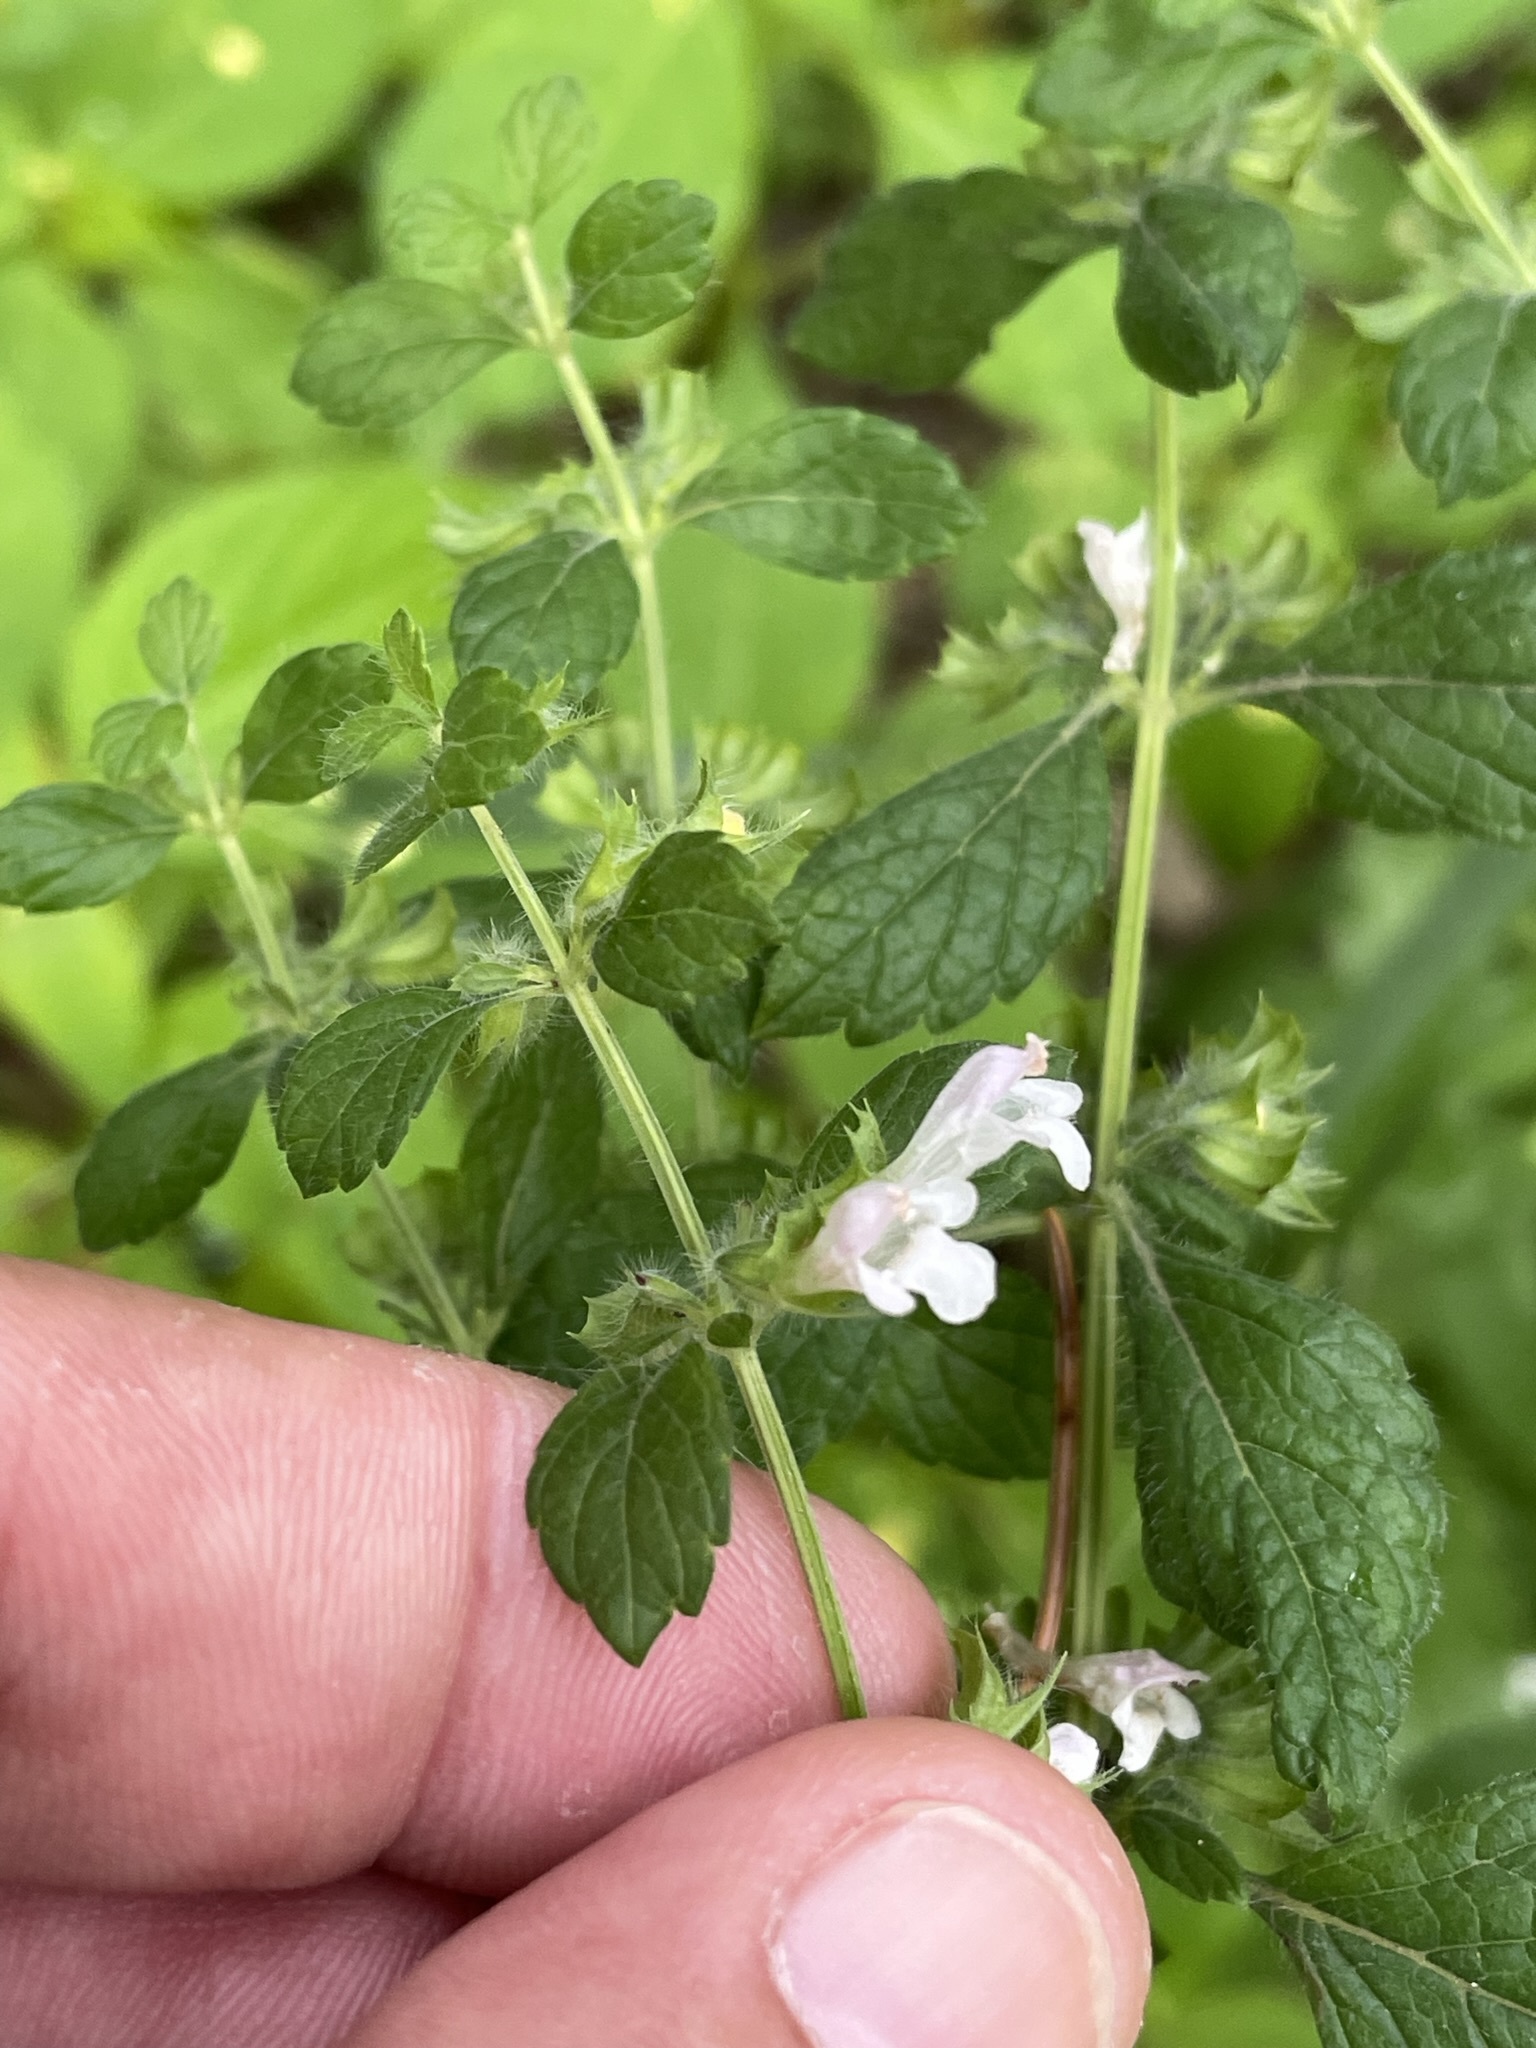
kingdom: Plantae
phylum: Tracheophyta
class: Magnoliopsida
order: Lamiales
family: Lamiaceae
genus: Melissa
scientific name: Melissa officinalis
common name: Balm
